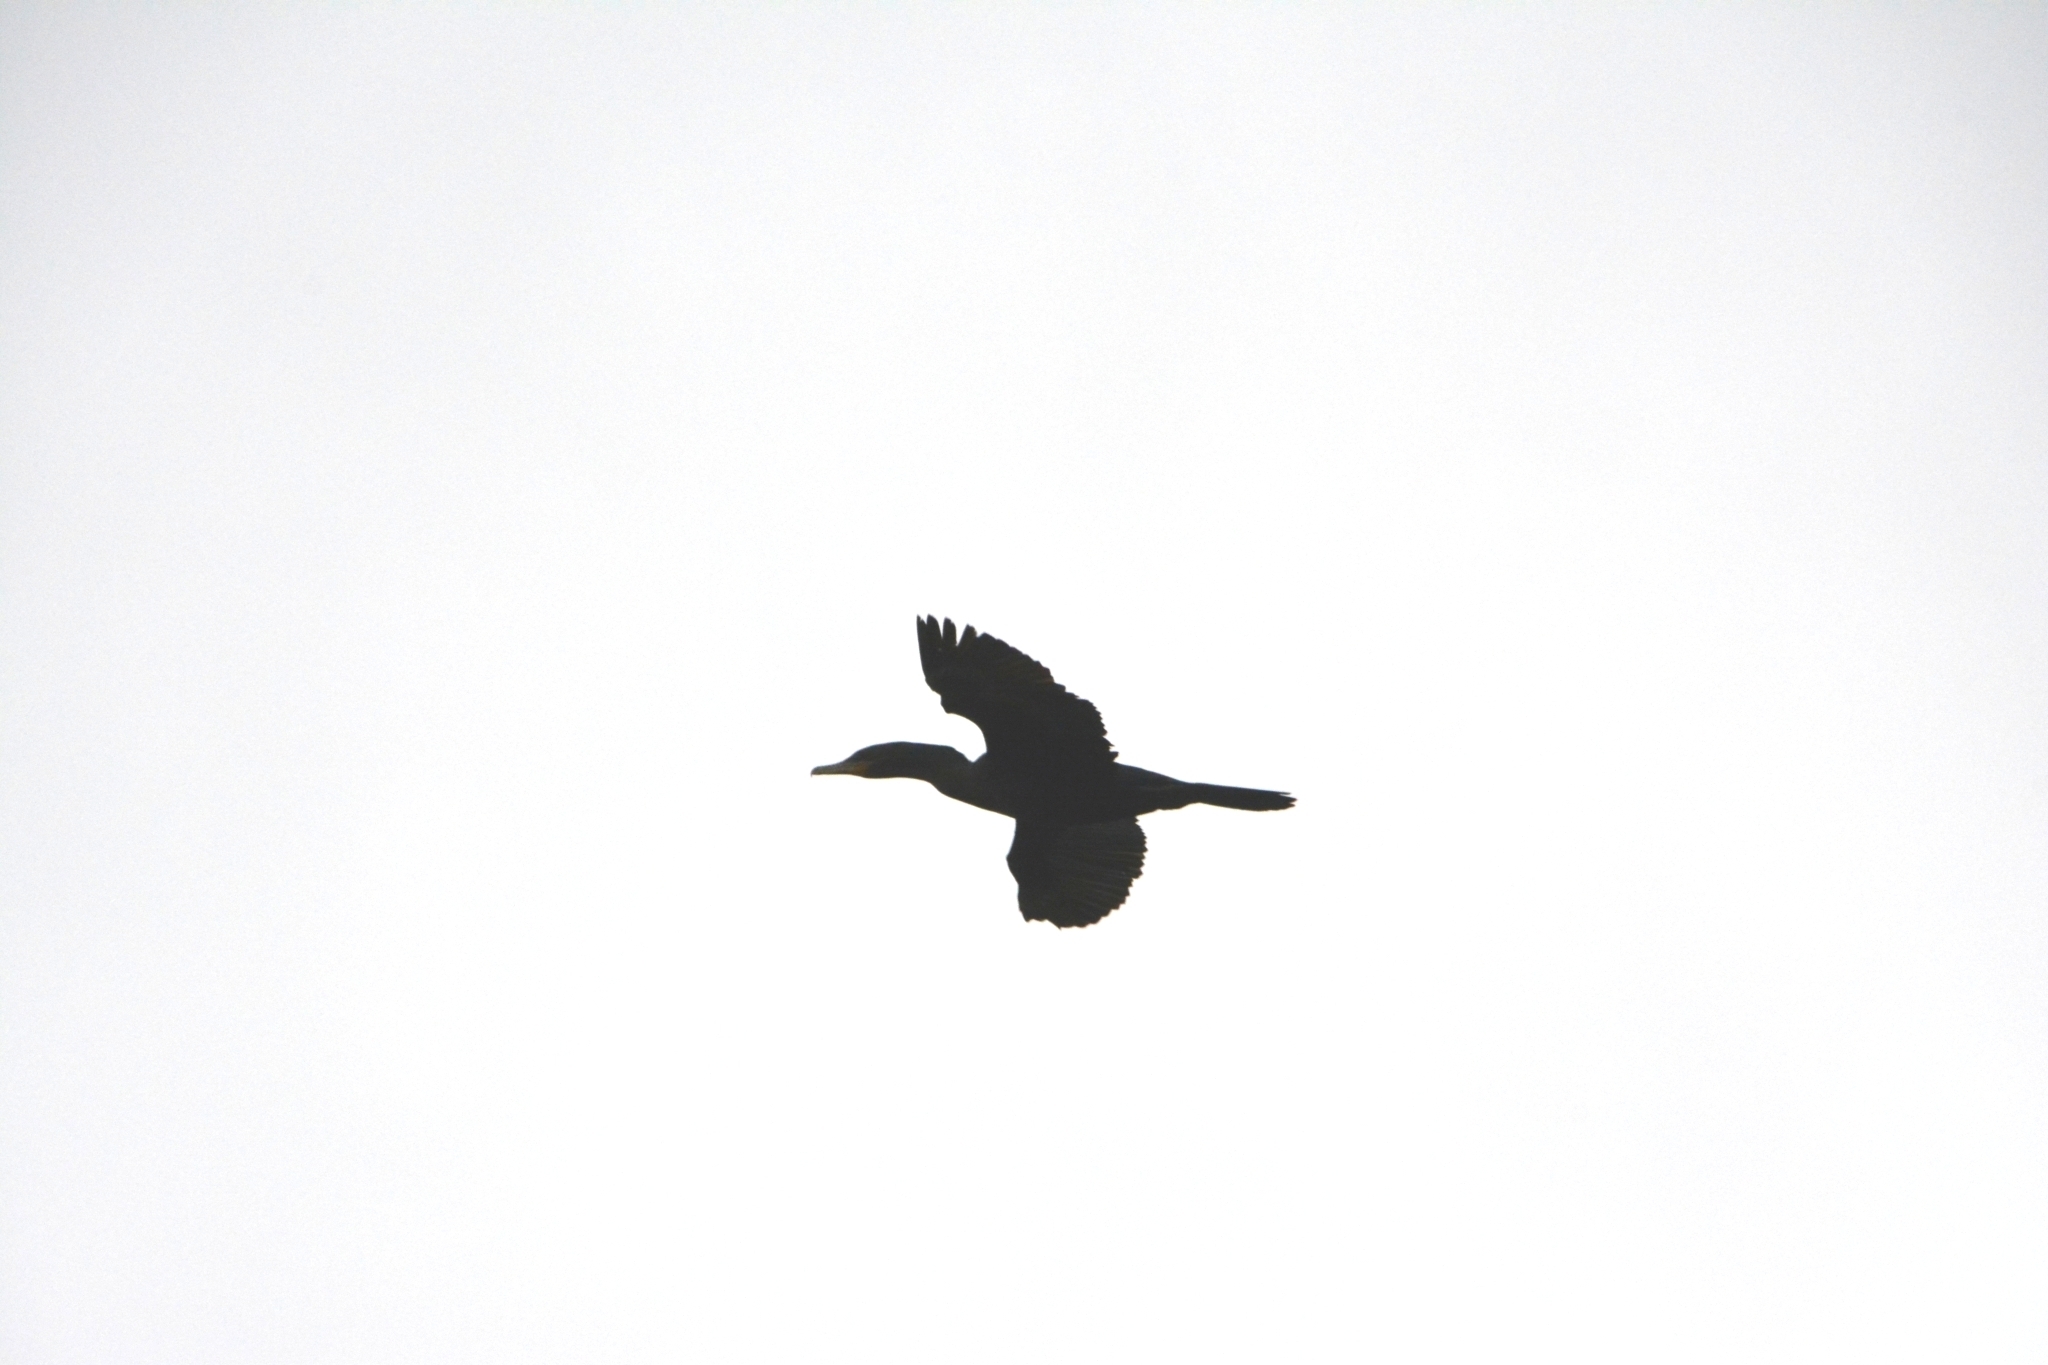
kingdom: Animalia
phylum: Chordata
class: Aves
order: Suliformes
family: Phalacrocoracidae
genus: Phalacrocorax
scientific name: Phalacrocorax brasilianus
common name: Neotropic cormorant
